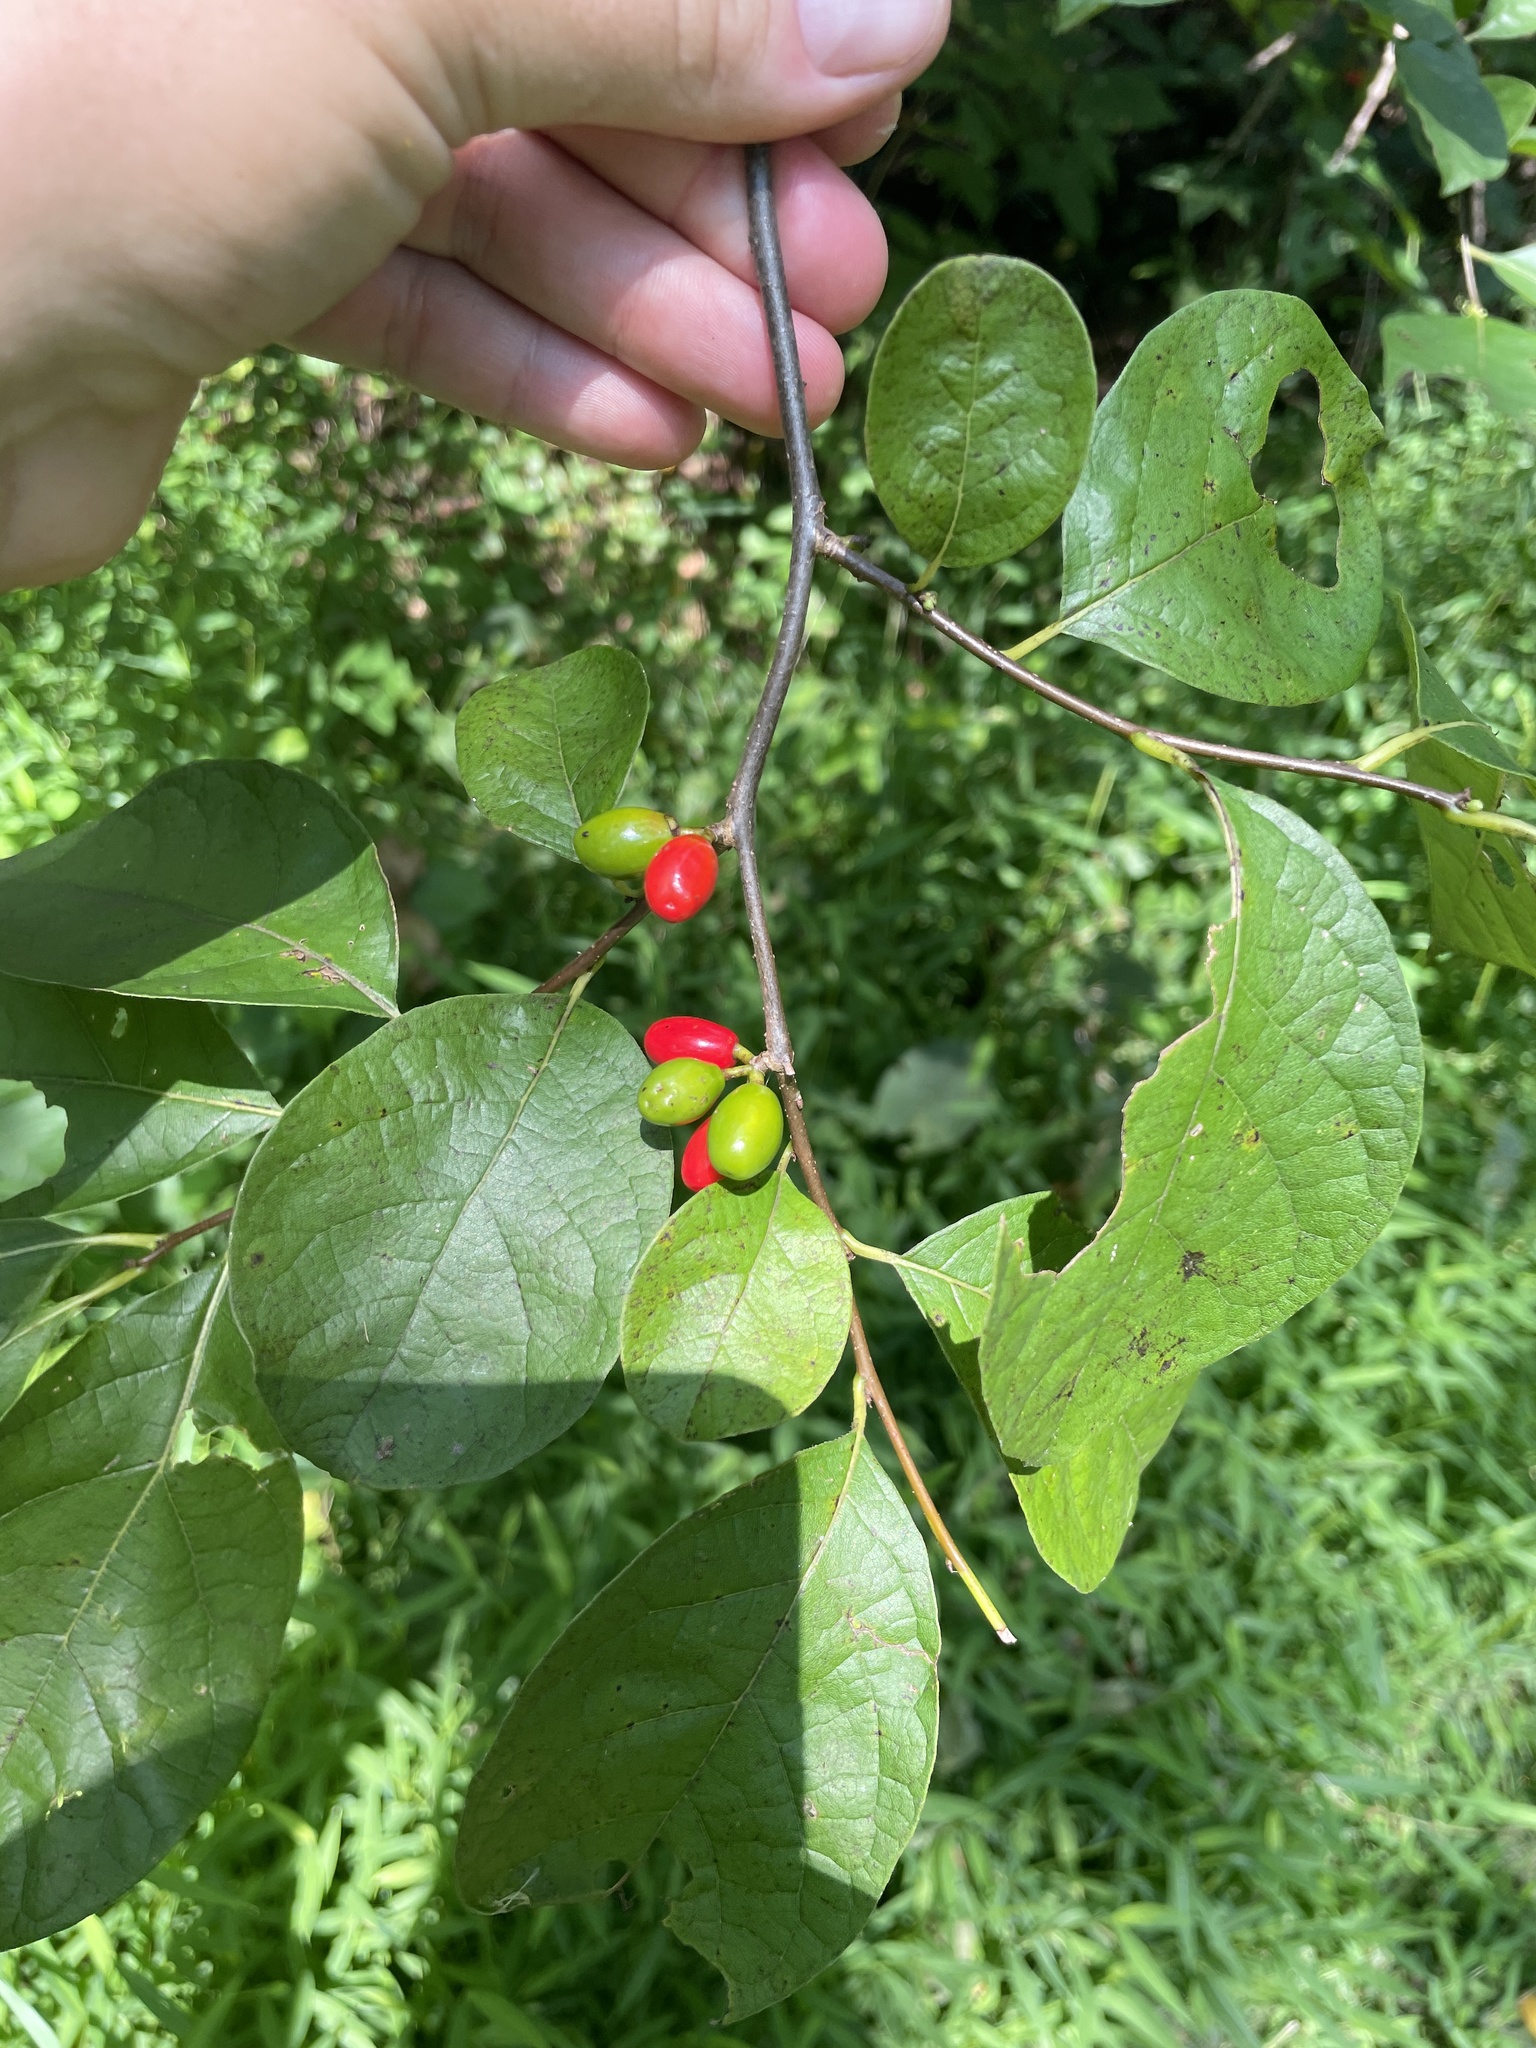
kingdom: Plantae
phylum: Tracheophyta
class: Magnoliopsida
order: Laurales
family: Lauraceae
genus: Lindera
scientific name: Lindera benzoin
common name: Spicebush
